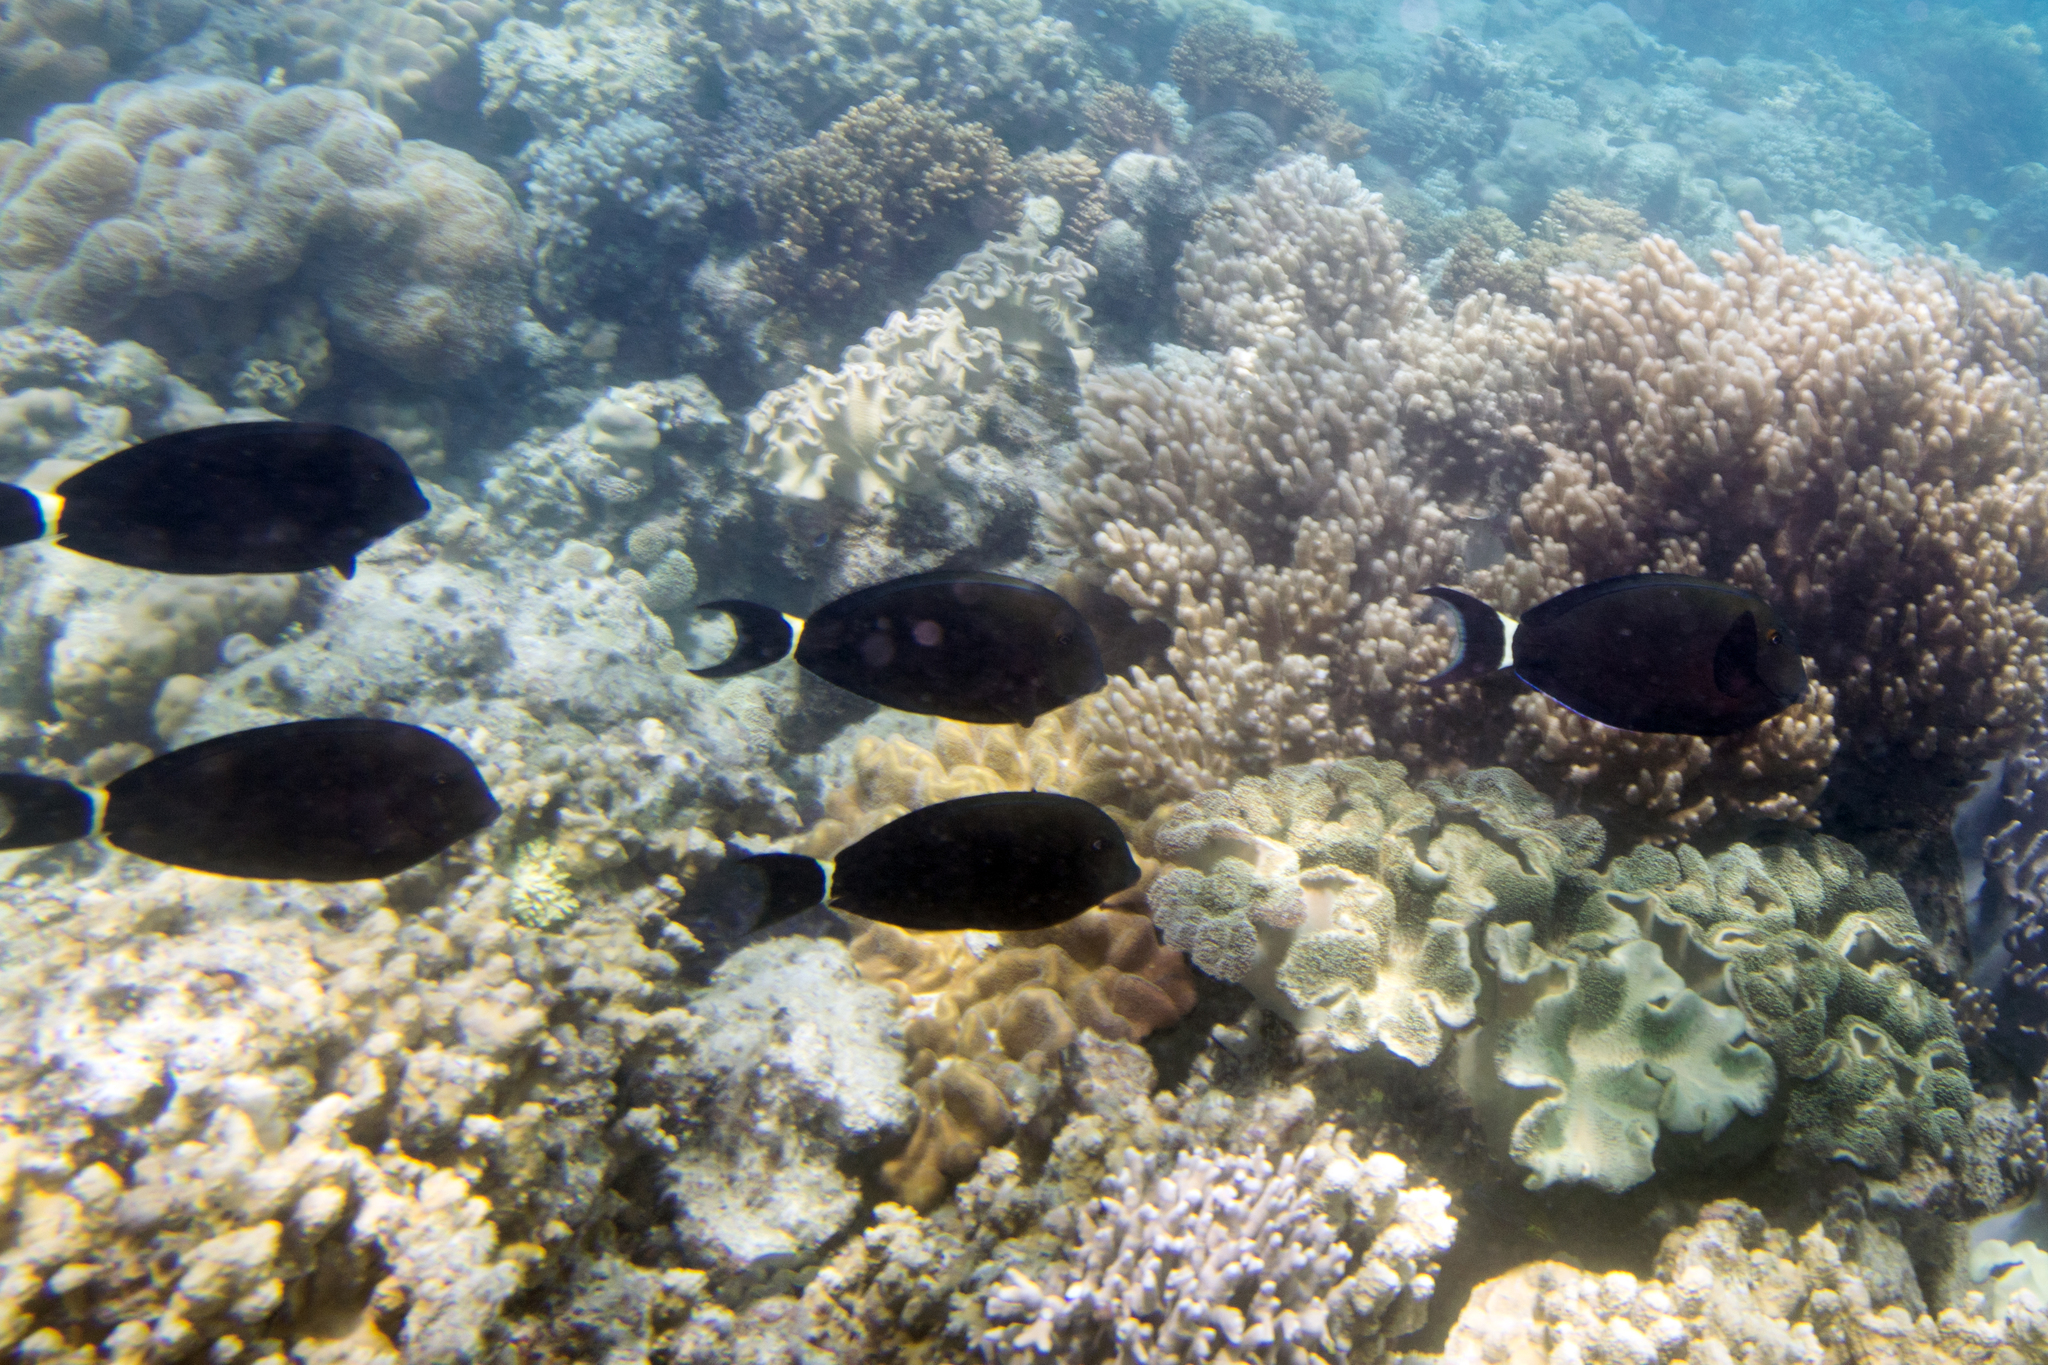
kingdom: Animalia
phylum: Chordata
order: Perciformes
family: Acanthuridae
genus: Acanthurus
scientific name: Acanthurus blochii
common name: Blue-banded pualu
